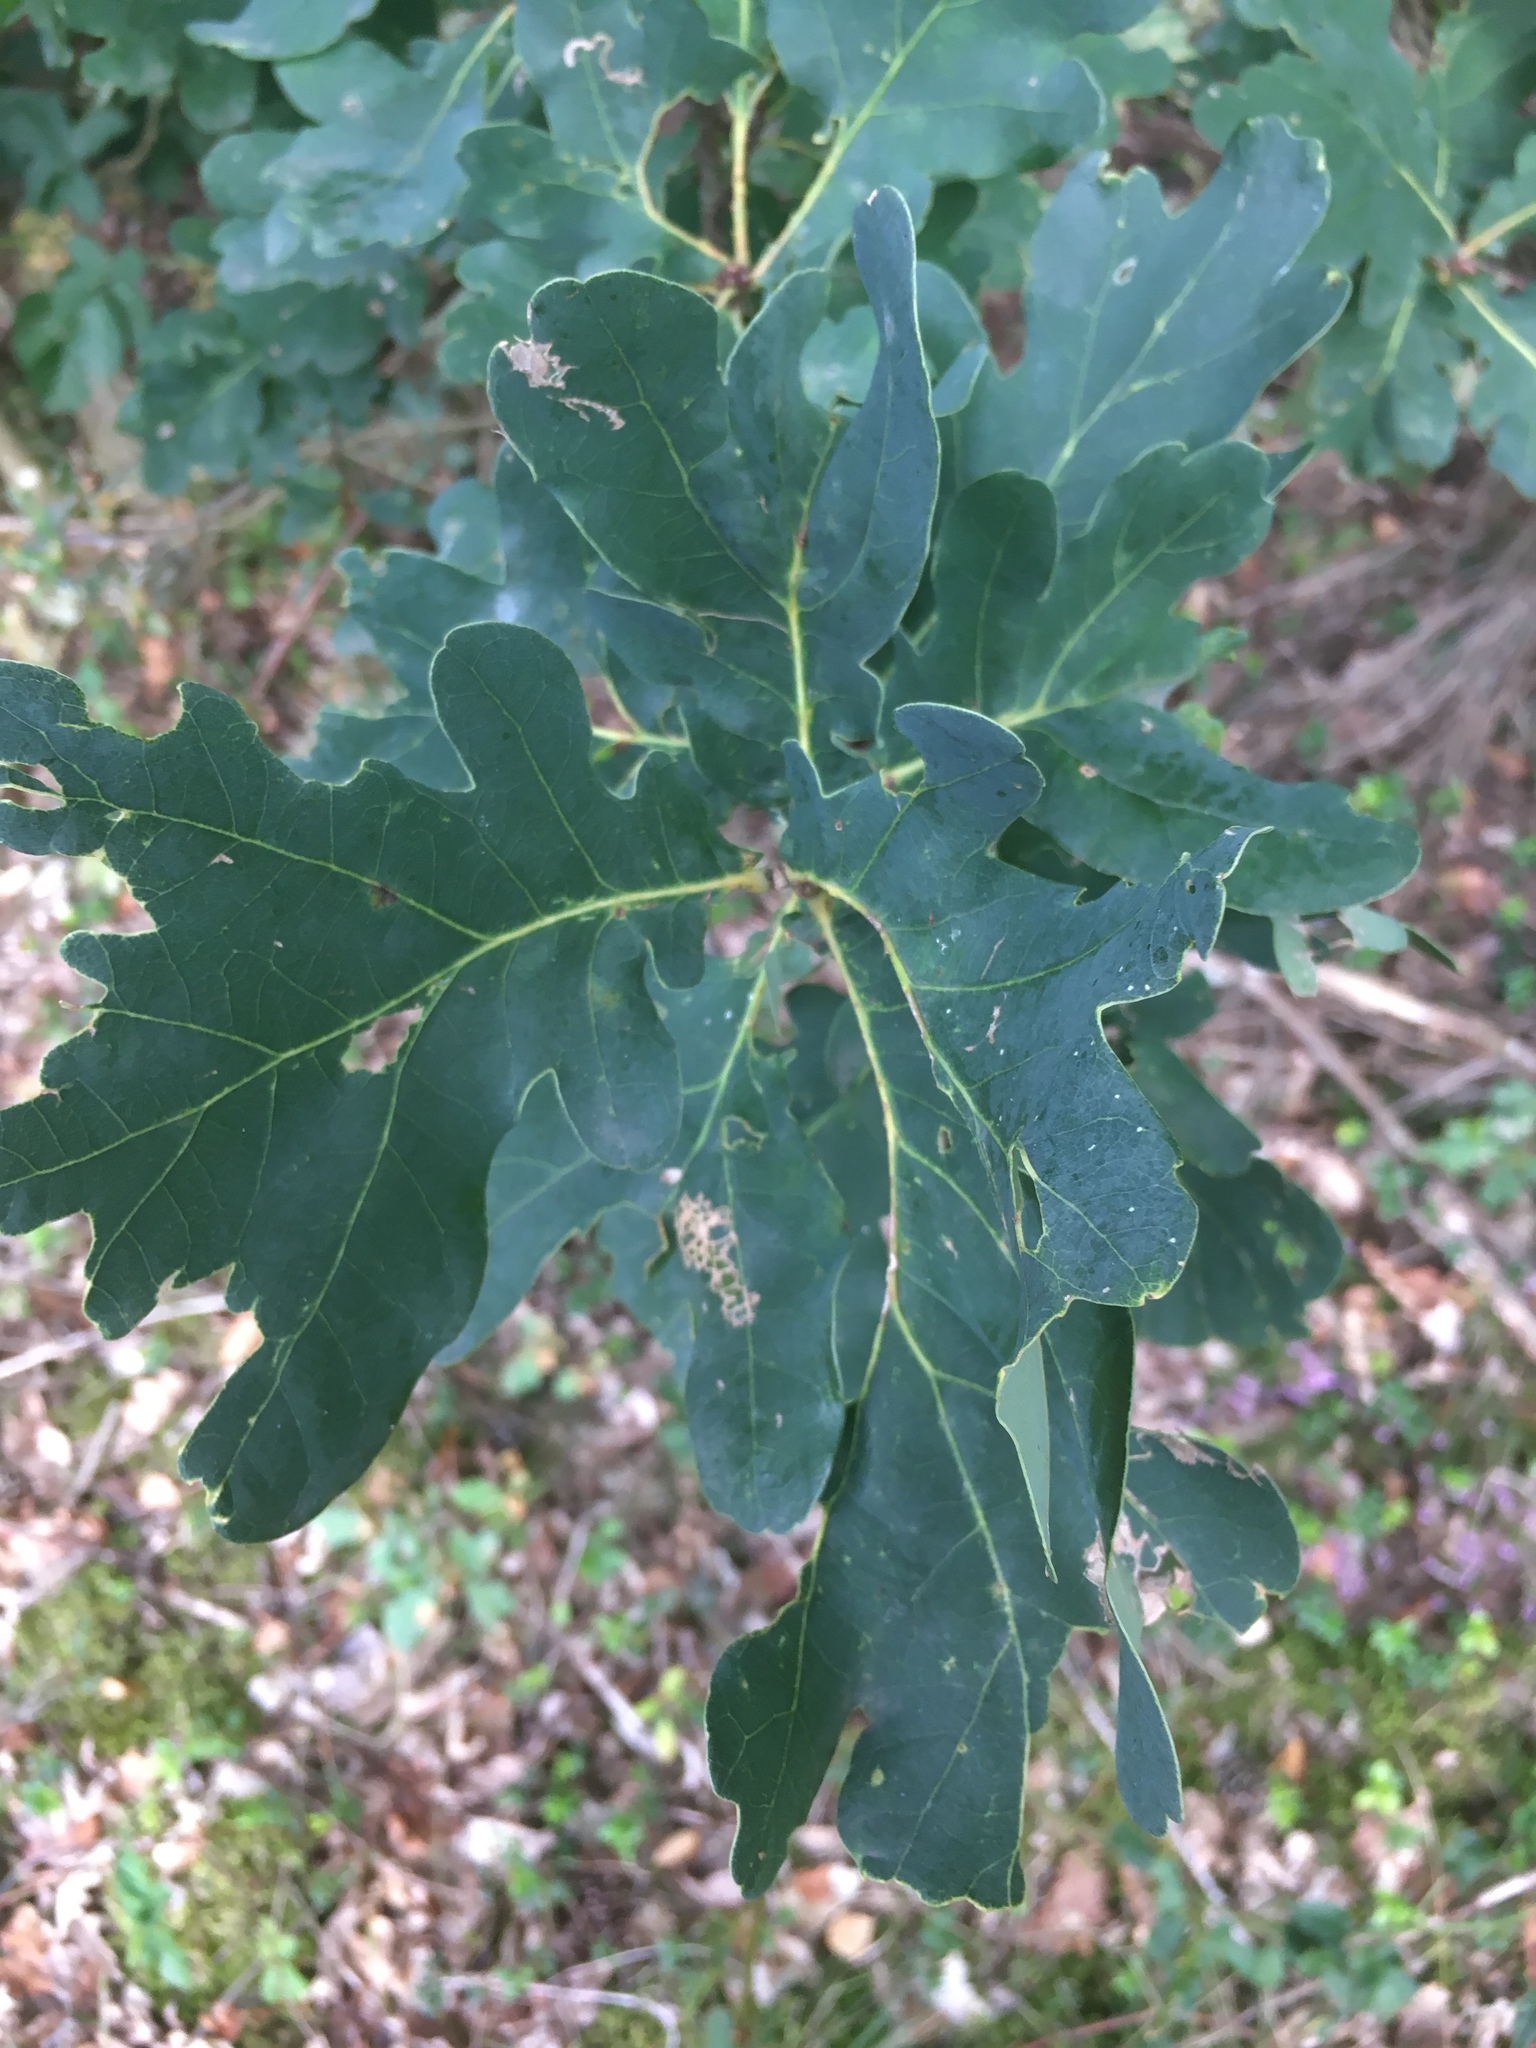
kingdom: Plantae
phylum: Tracheophyta
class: Magnoliopsida
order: Fagales
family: Fagaceae
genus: Quercus
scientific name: Quercus robur
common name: Pedunculate oak
